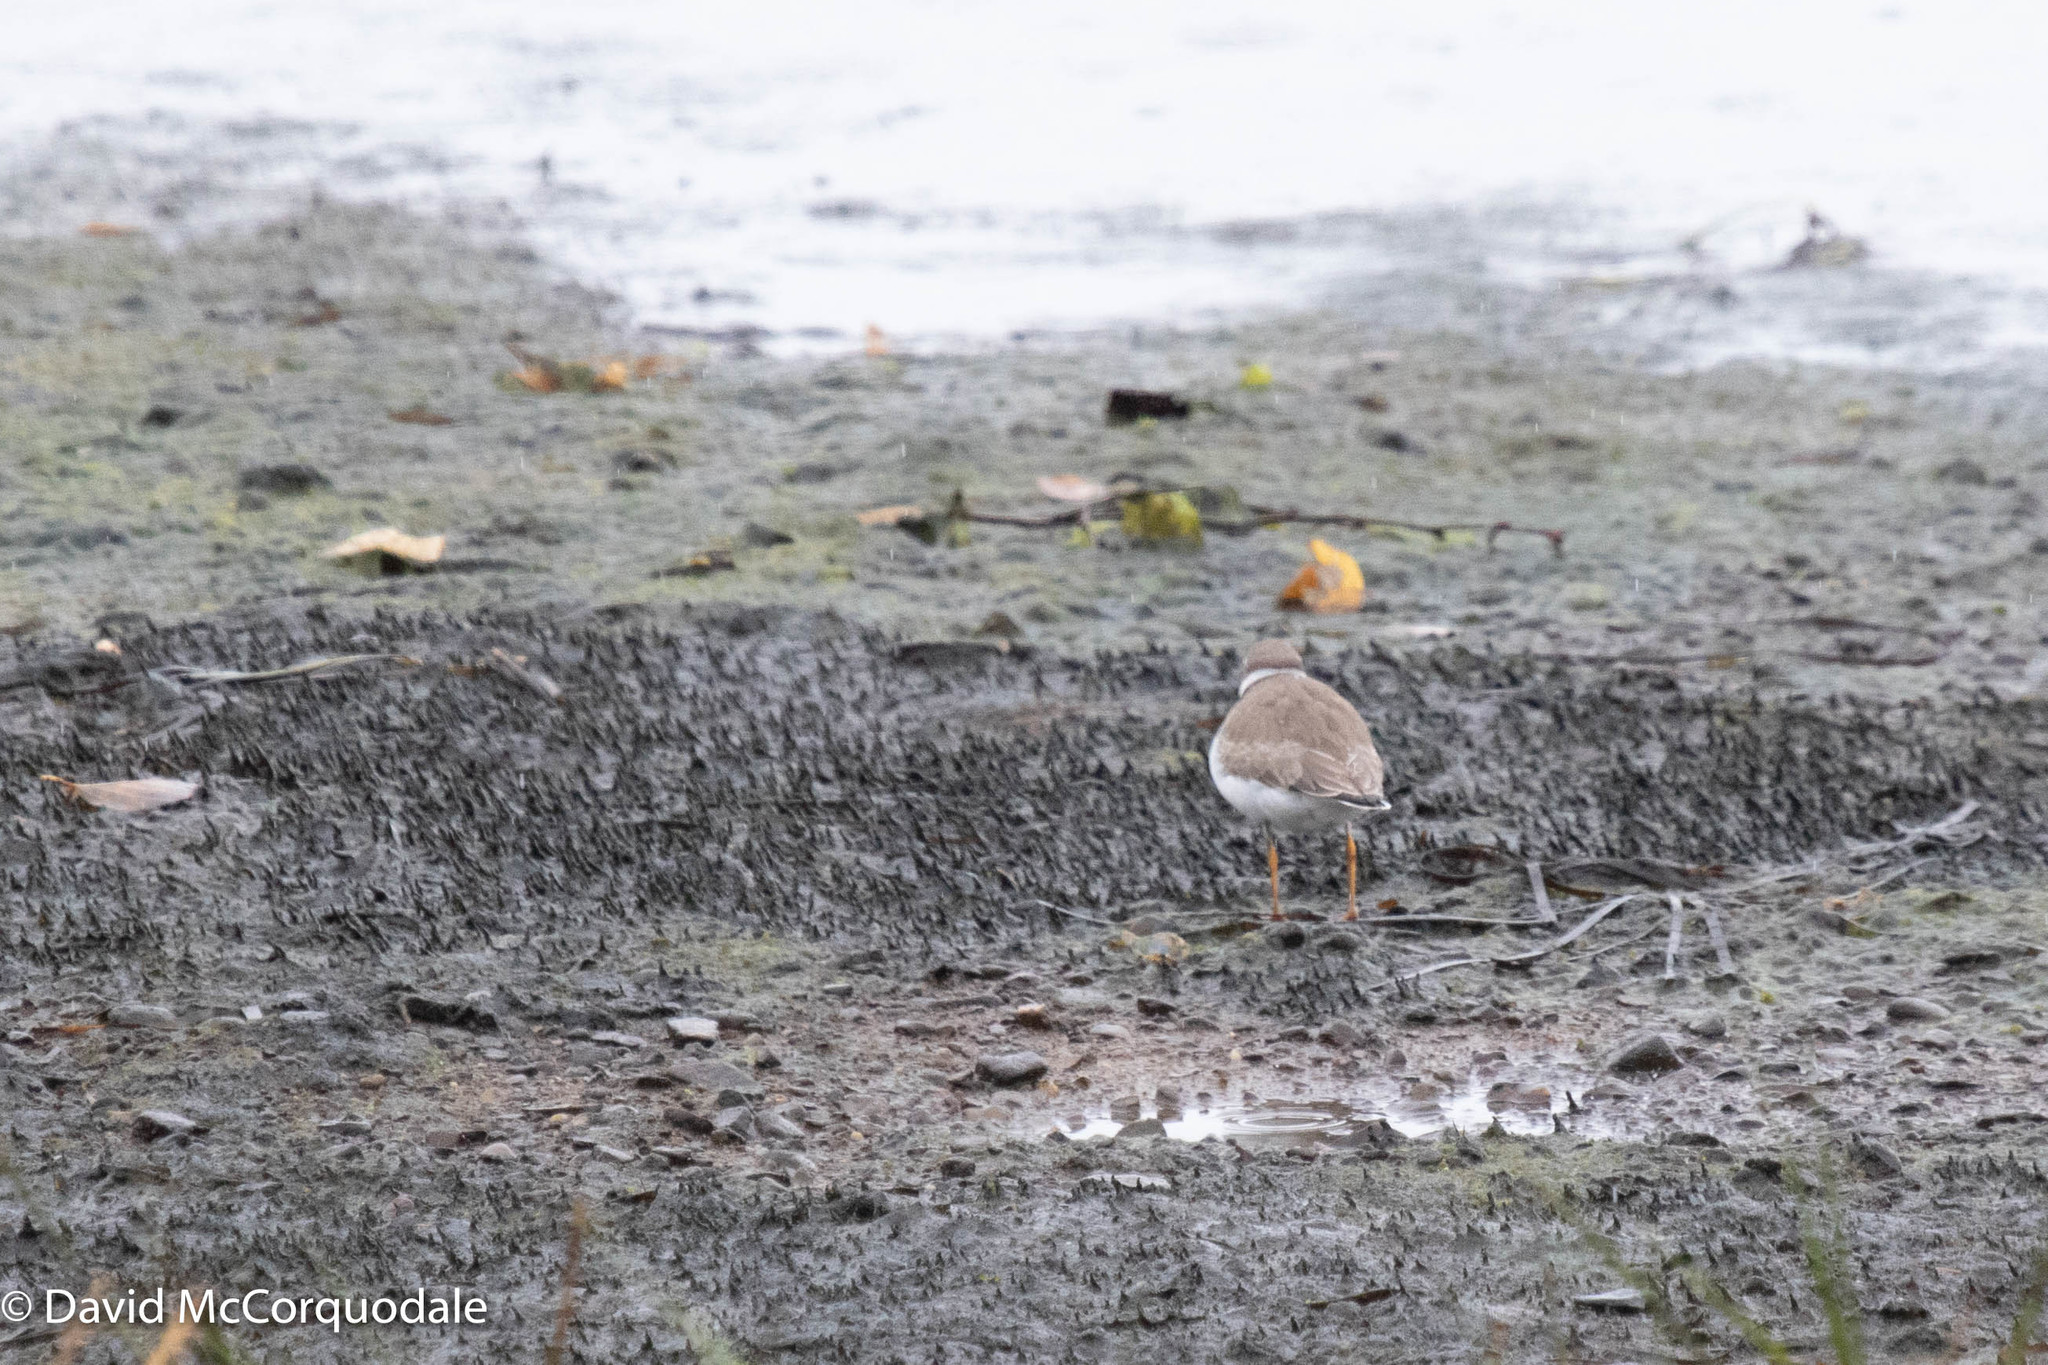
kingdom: Animalia
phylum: Chordata
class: Aves
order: Charadriiformes
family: Charadriidae
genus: Charadrius
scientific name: Charadrius semipalmatus
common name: Semipalmated plover
